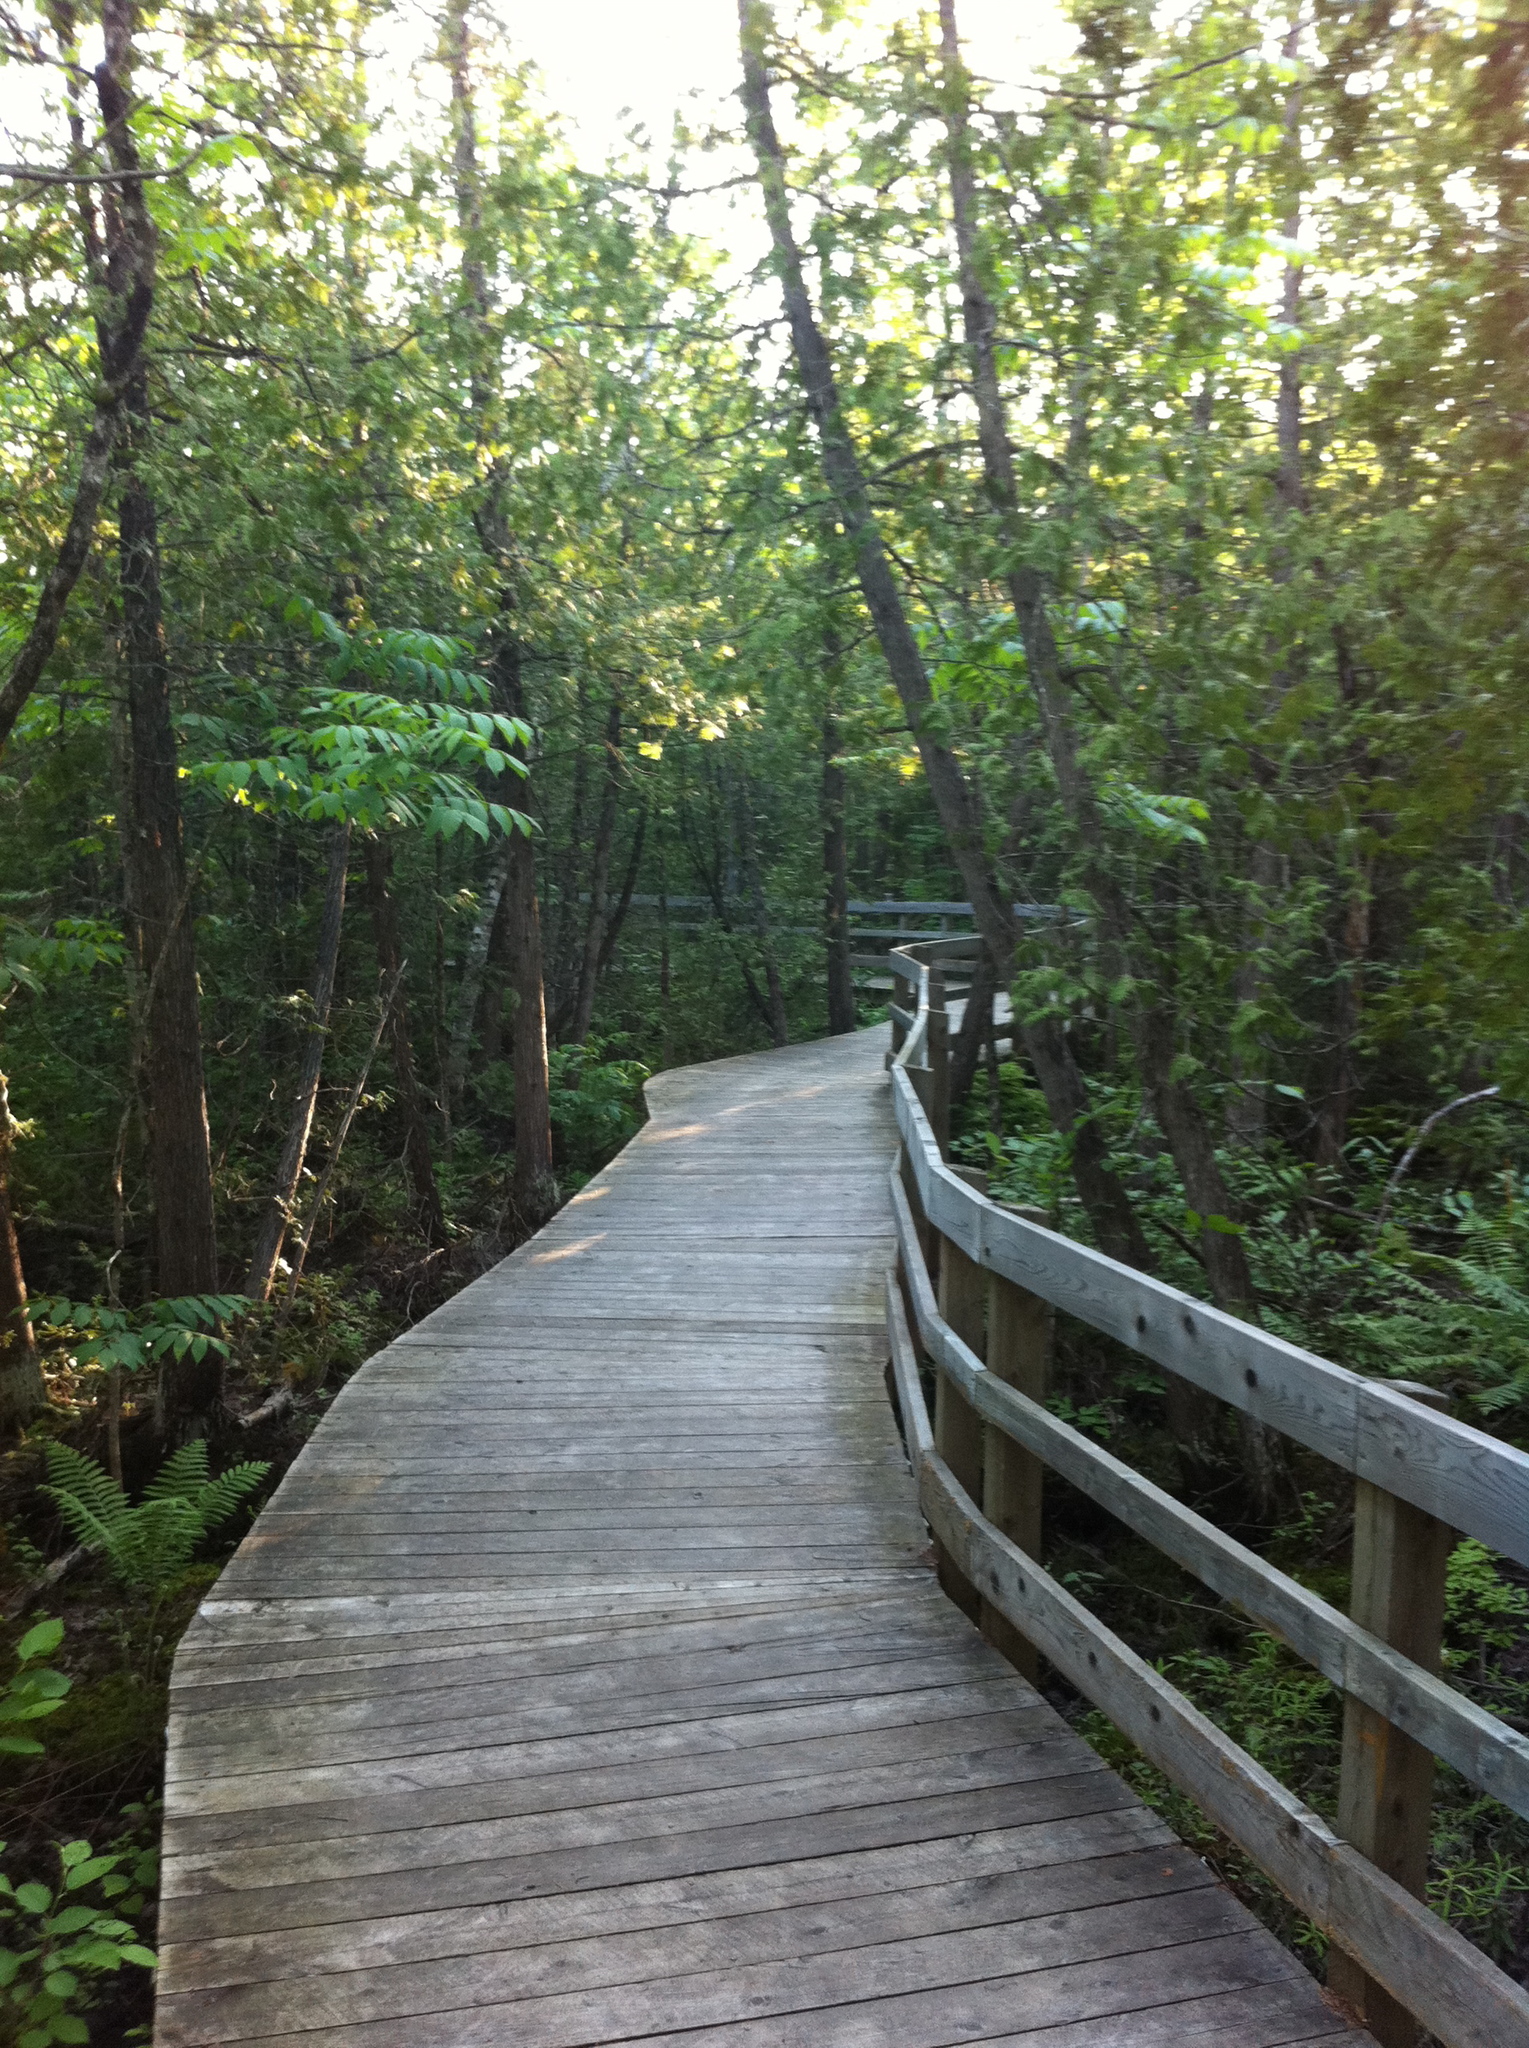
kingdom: Plantae
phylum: Tracheophyta
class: Pinopsida
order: Pinales
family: Cupressaceae
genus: Thuja
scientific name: Thuja occidentalis
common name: Northern white-cedar
